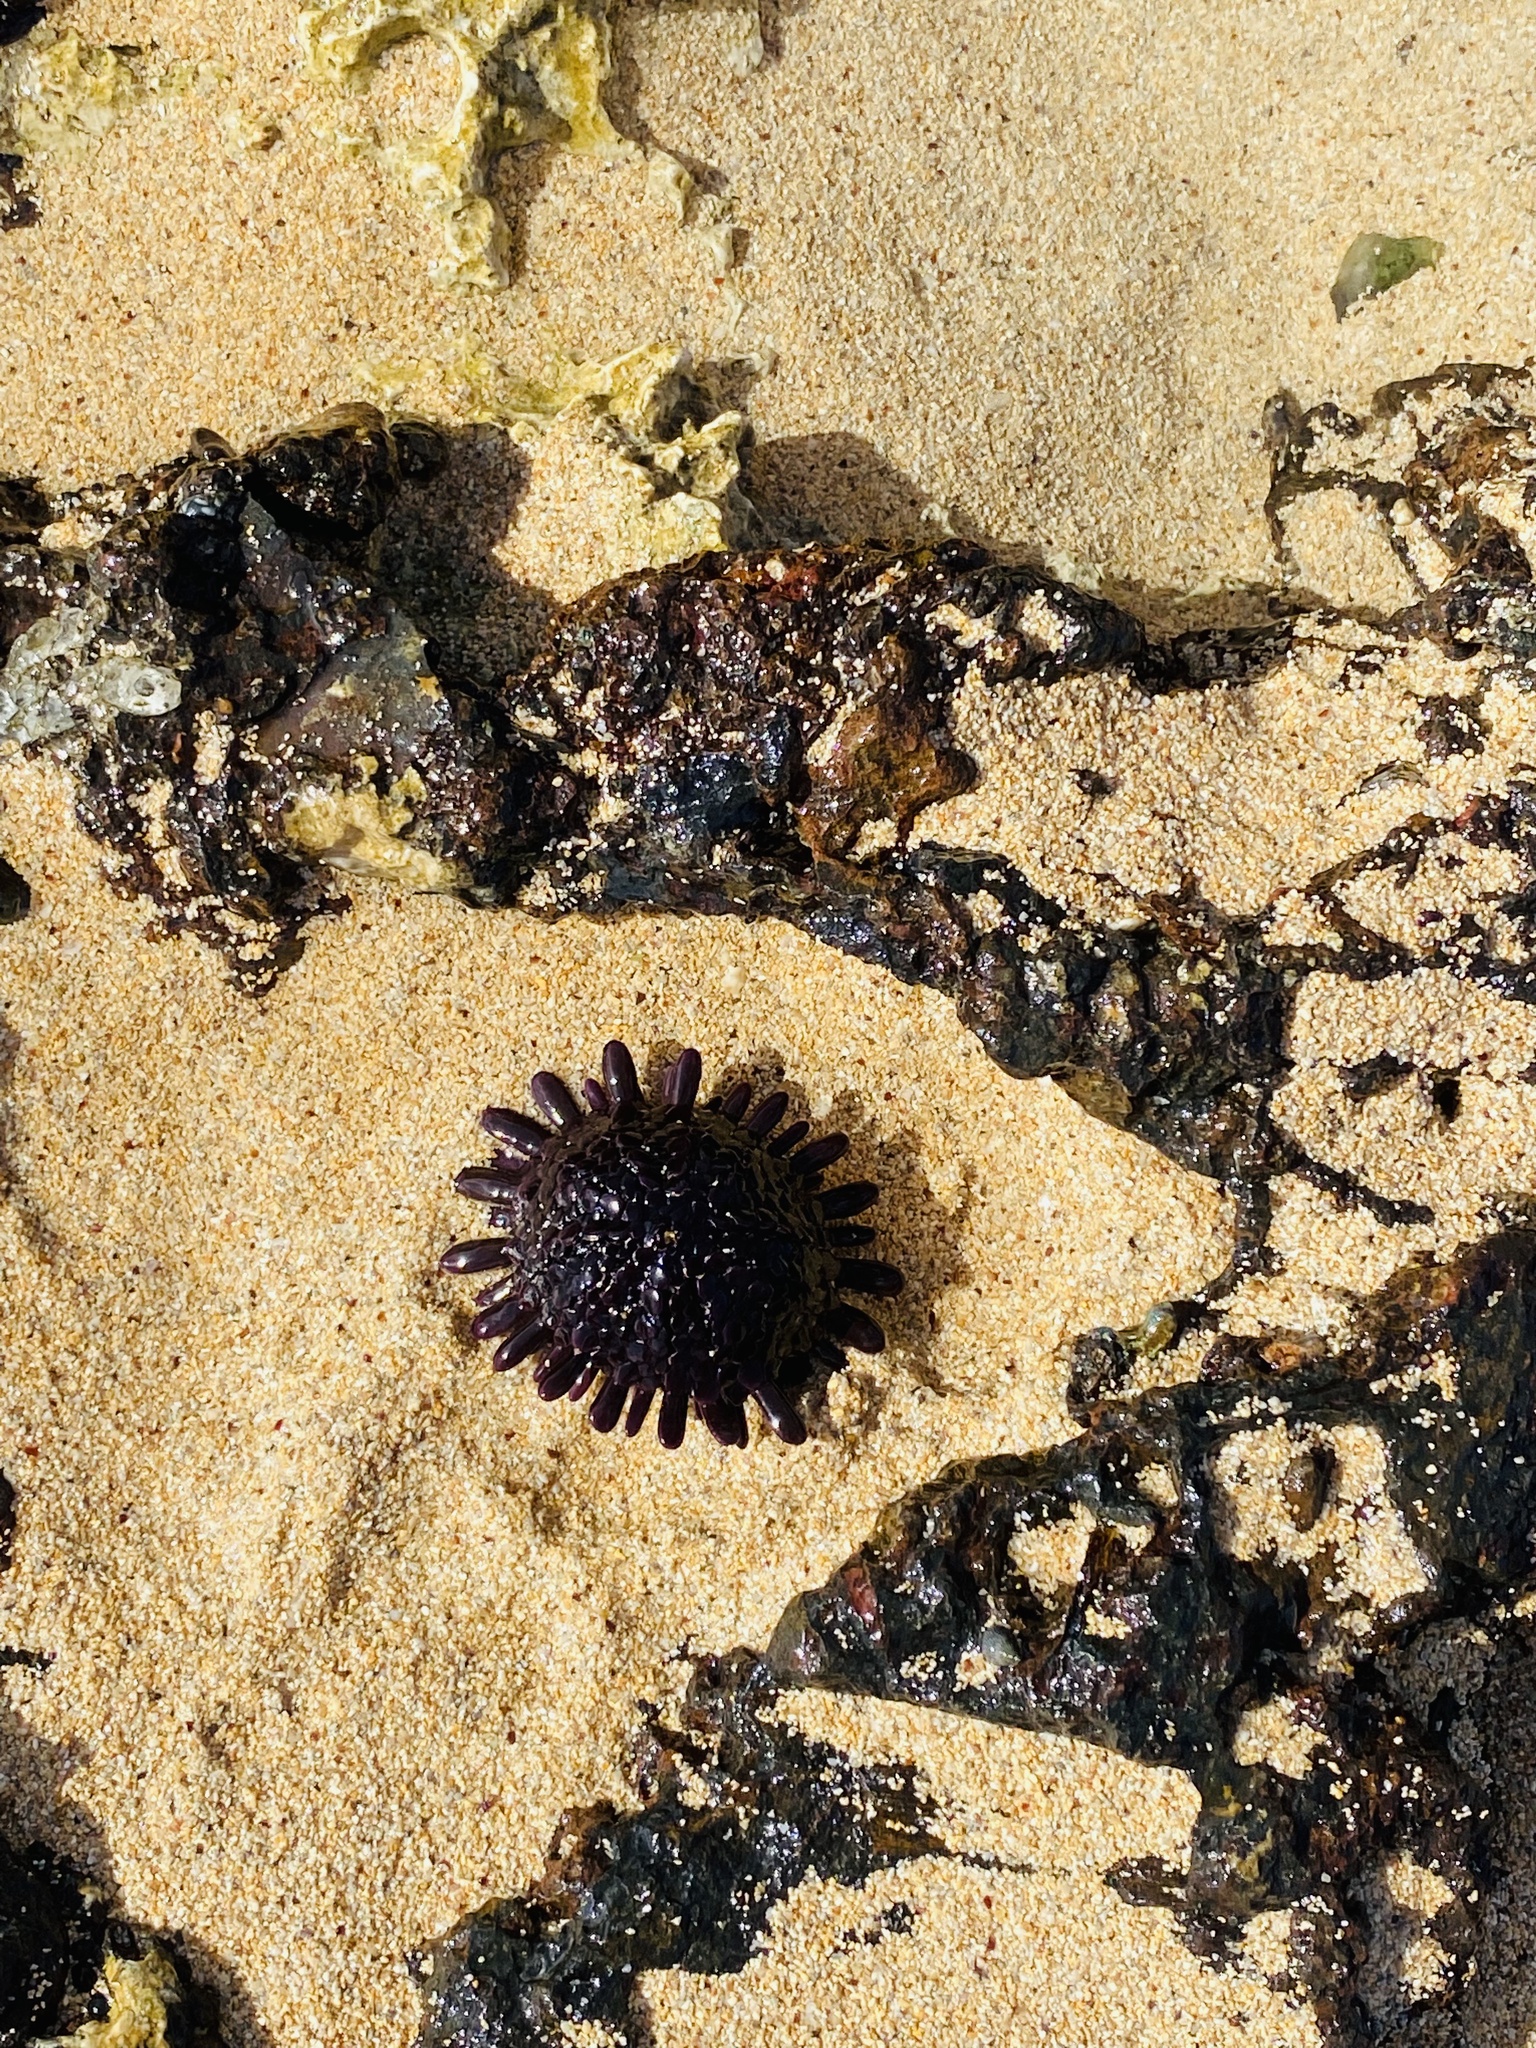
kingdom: Animalia
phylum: Echinodermata
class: Echinoidea
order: Camarodonta
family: Echinometridae
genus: Colobocentrotus
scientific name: Colobocentrotus atratus
